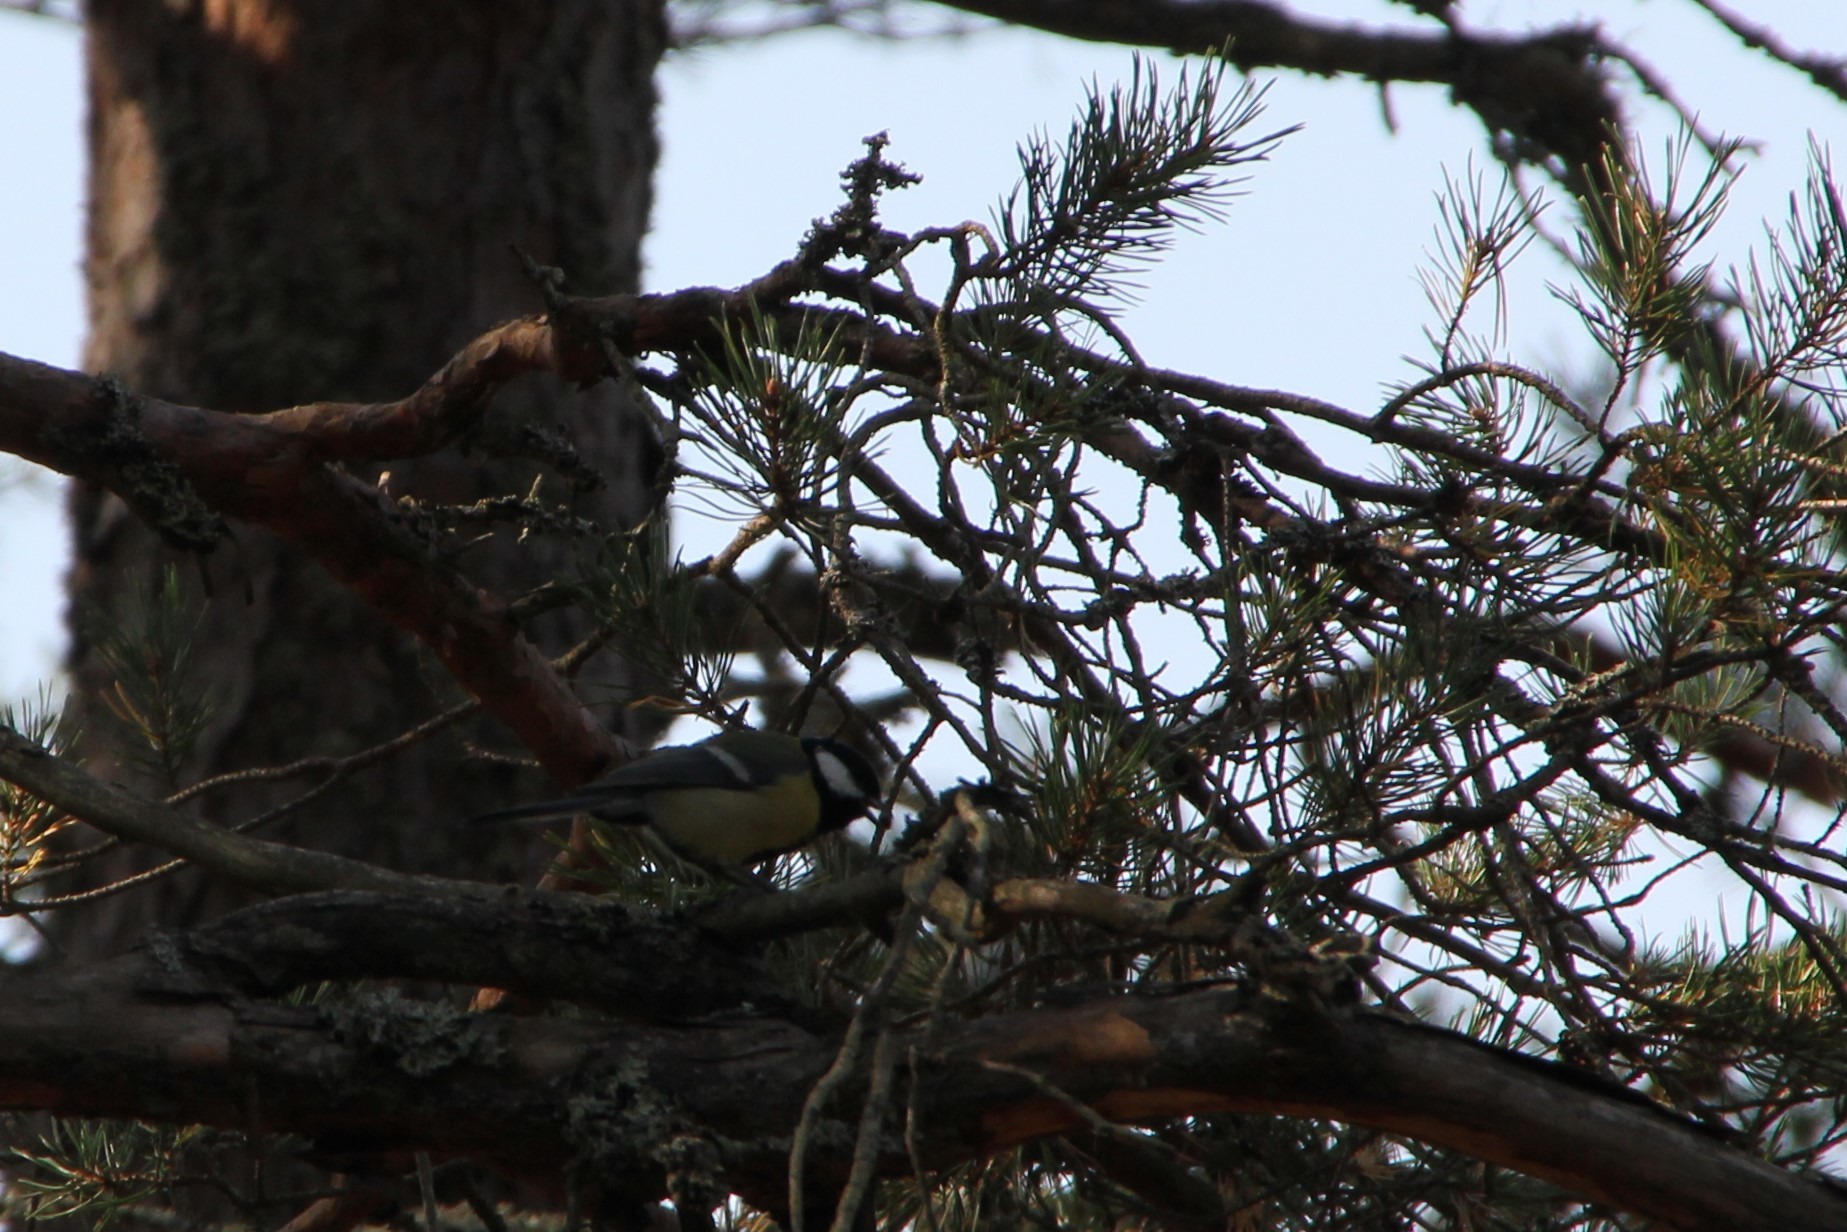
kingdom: Animalia
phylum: Chordata
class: Aves
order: Passeriformes
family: Paridae
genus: Parus
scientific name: Parus major
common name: Great tit
